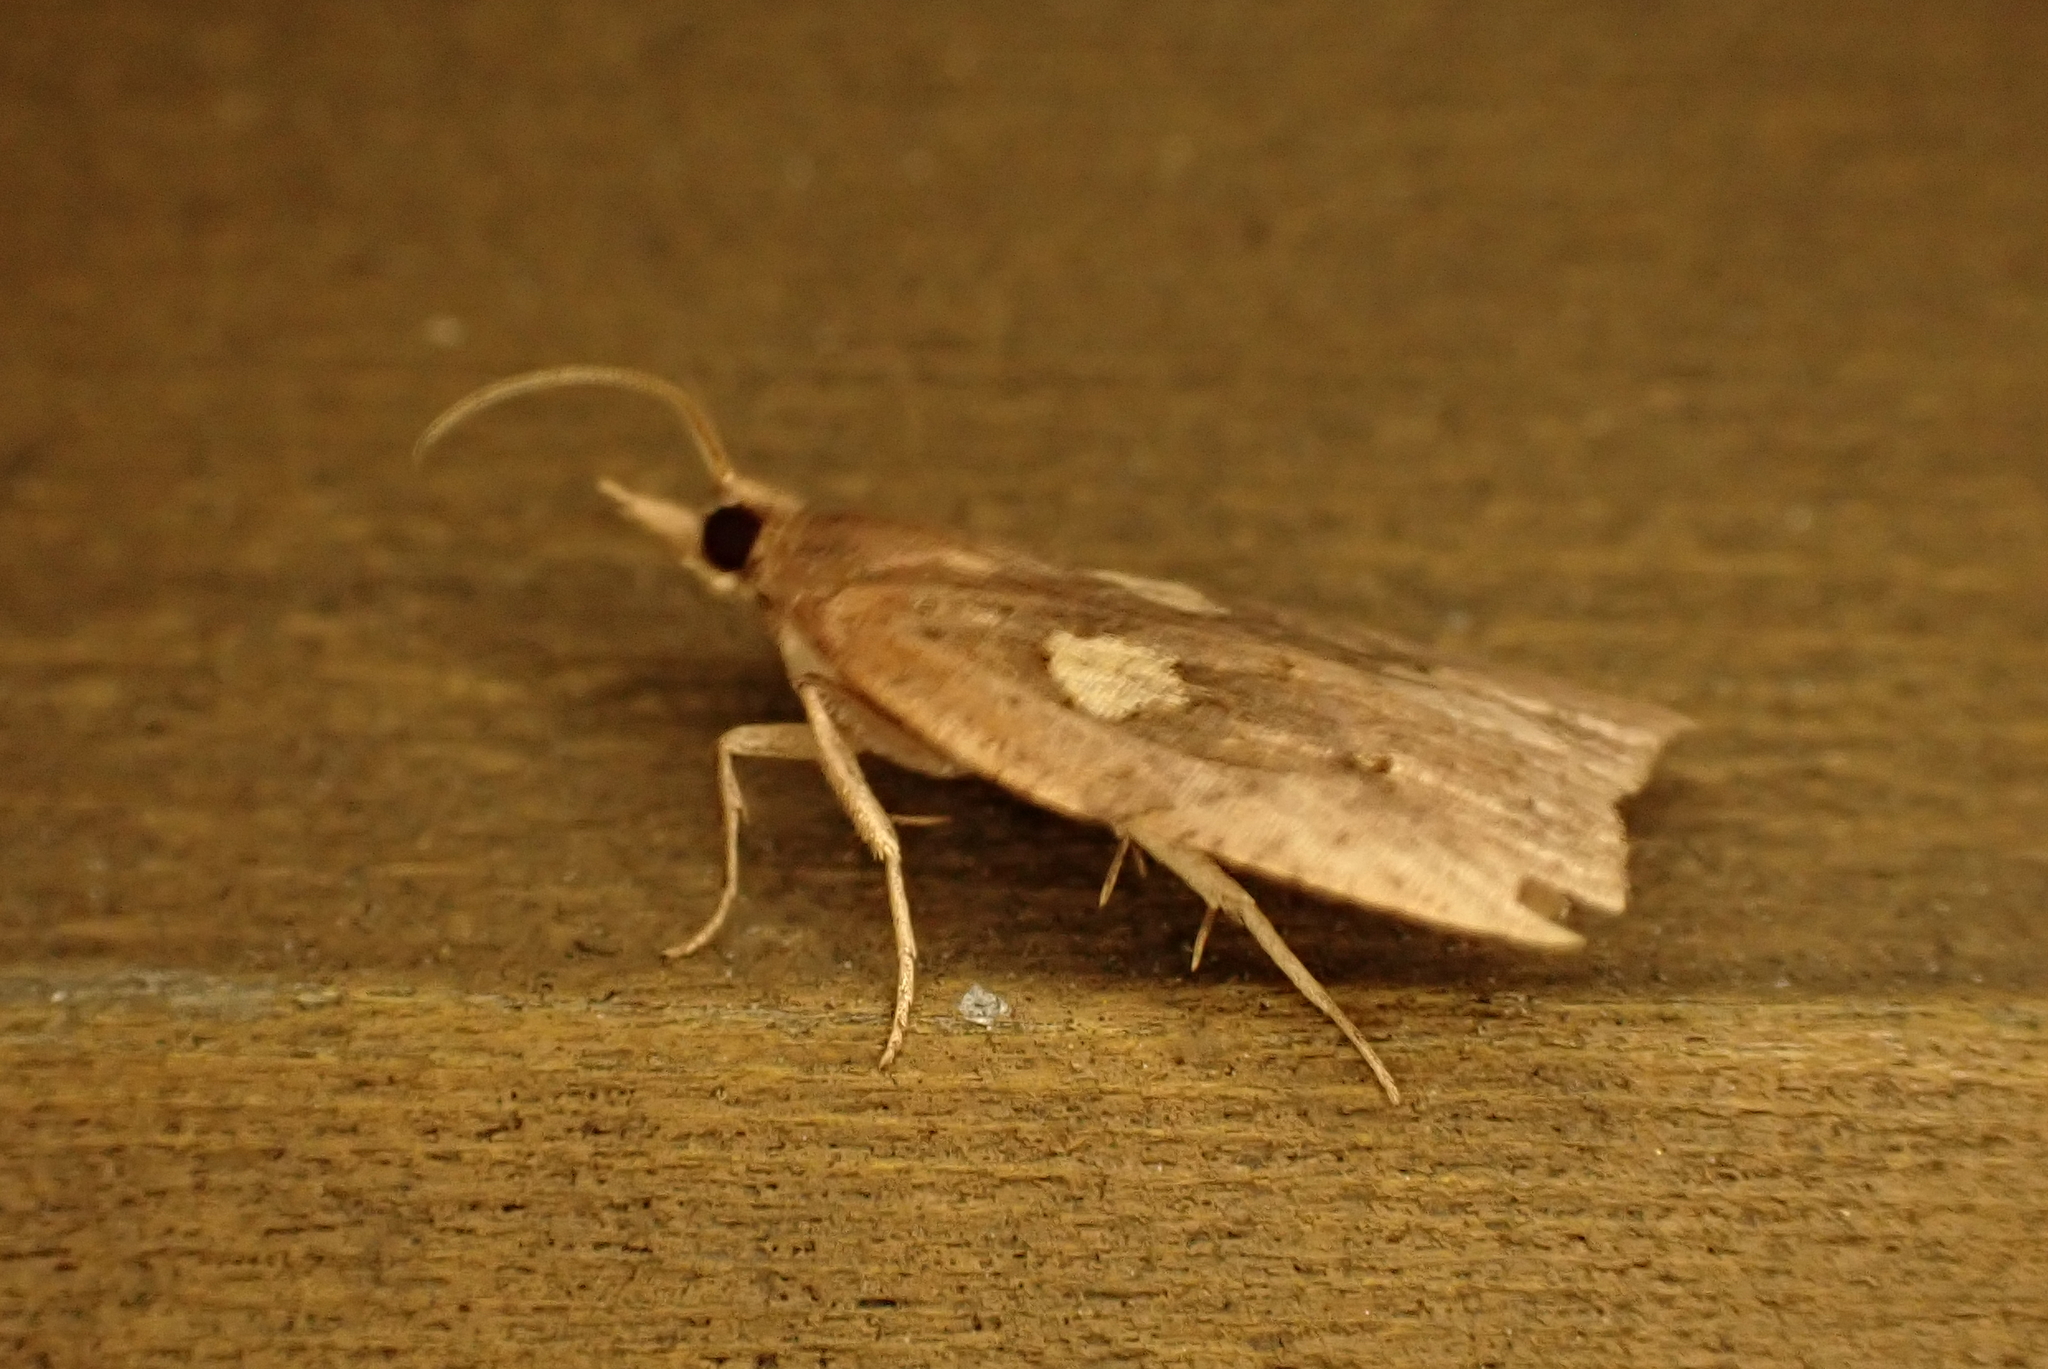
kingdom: Animalia
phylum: Arthropoda
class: Insecta
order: Lepidoptera
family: Tortricidae
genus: Planotortrix
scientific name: Planotortrix notophaea
